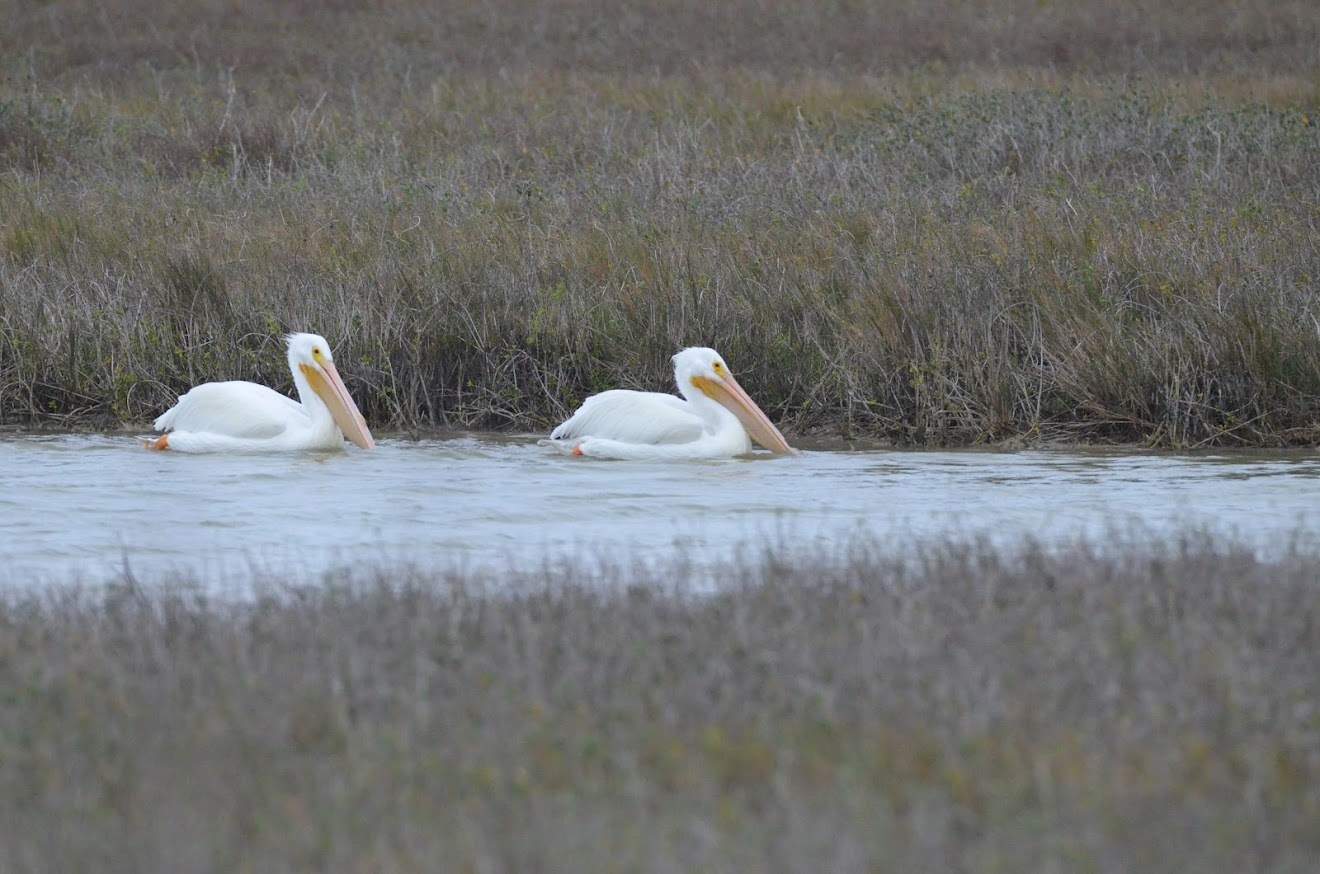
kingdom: Animalia
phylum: Chordata
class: Aves
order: Pelecaniformes
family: Pelecanidae
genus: Pelecanus
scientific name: Pelecanus erythrorhynchos
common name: American white pelican
